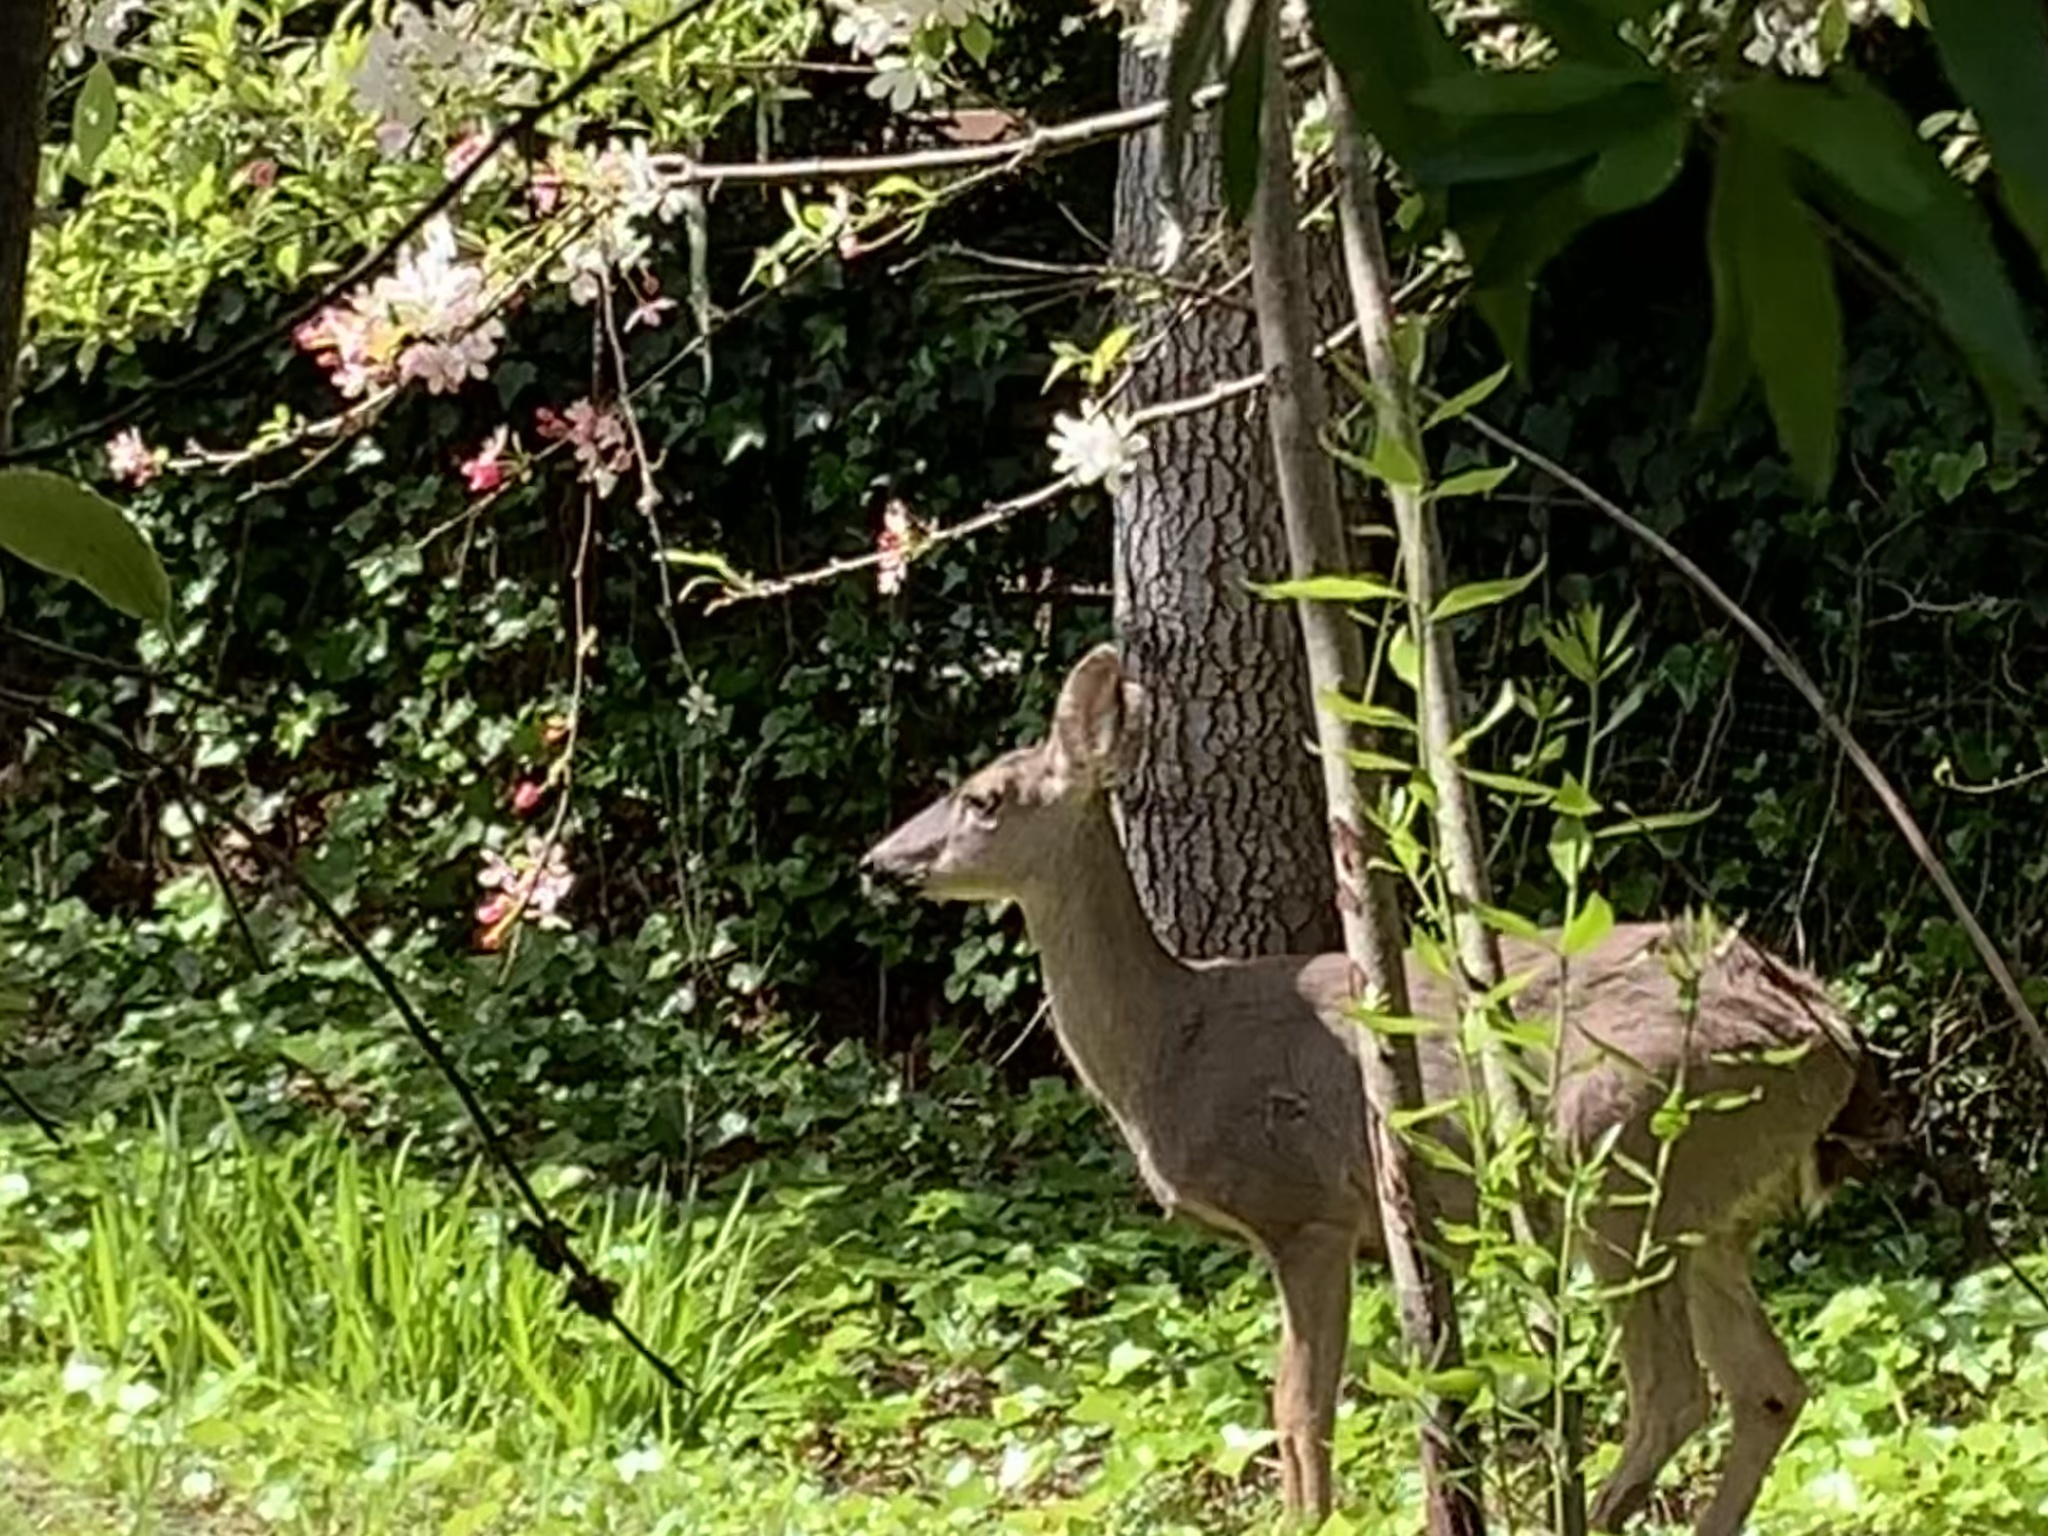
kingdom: Animalia
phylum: Chordata
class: Mammalia
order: Artiodactyla
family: Cervidae
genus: Odocoileus
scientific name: Odocoileus hemionus
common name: Mule deer
